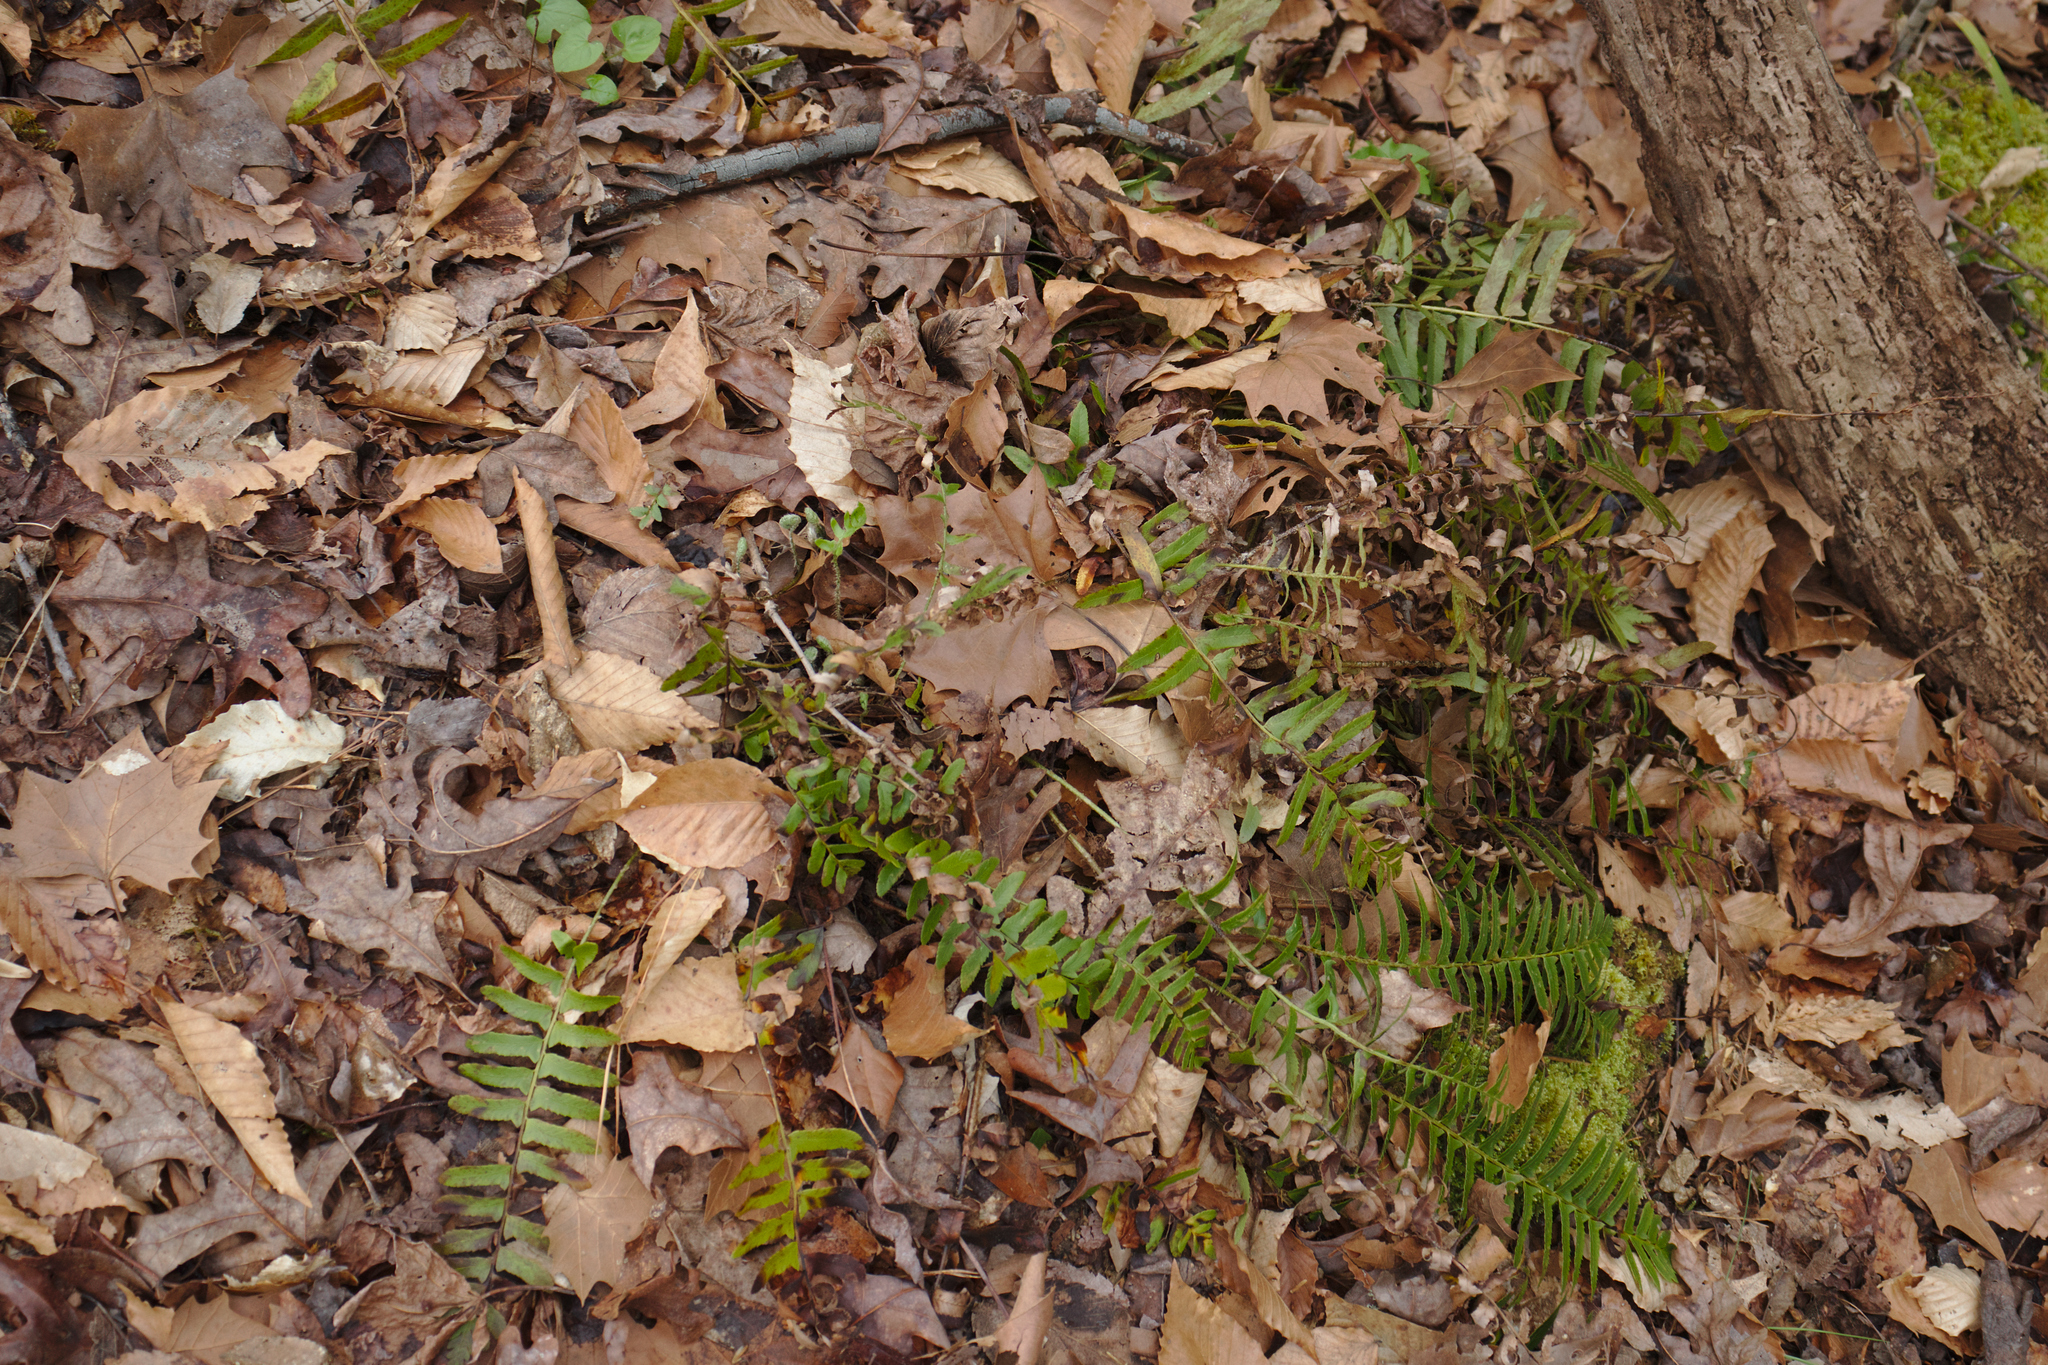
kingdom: Plantae
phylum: Tracheophyta
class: Polypodiopsida
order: Polypodiales
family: Dryopteridaceae
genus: Polystichum
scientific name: Polystichum acrostichoides
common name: Christmas fern
